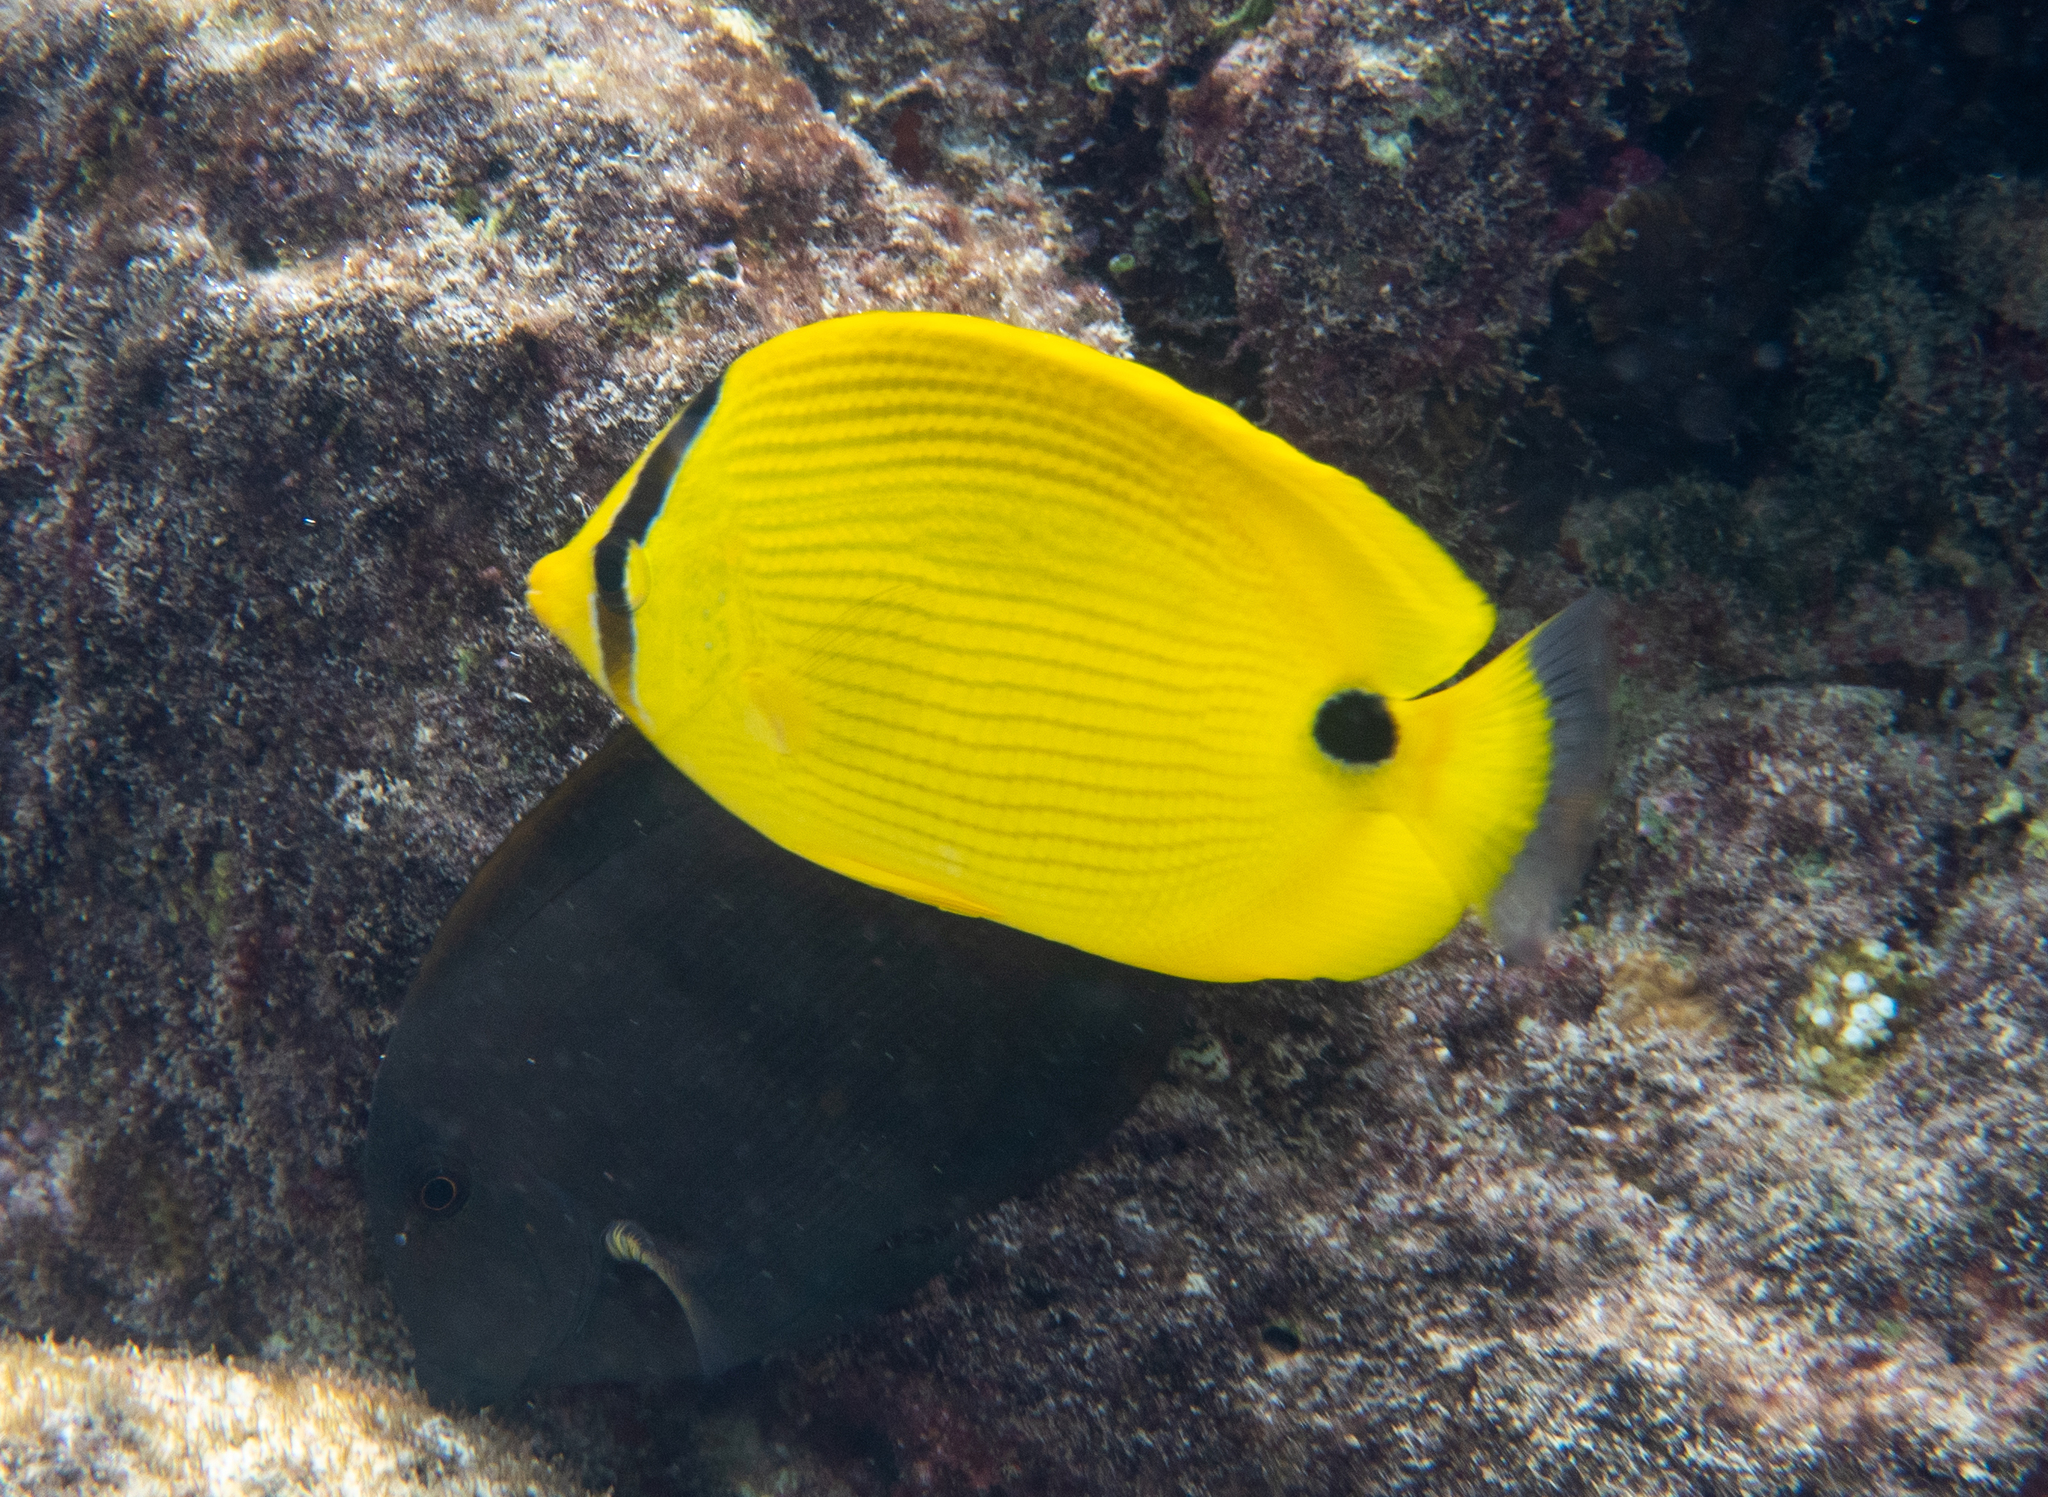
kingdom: Animalia
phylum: Chordata
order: Perciformes
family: Chaetodontidae
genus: Chaetodon
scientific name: Chaetodon andamanensis
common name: Yellow butterflyfish
